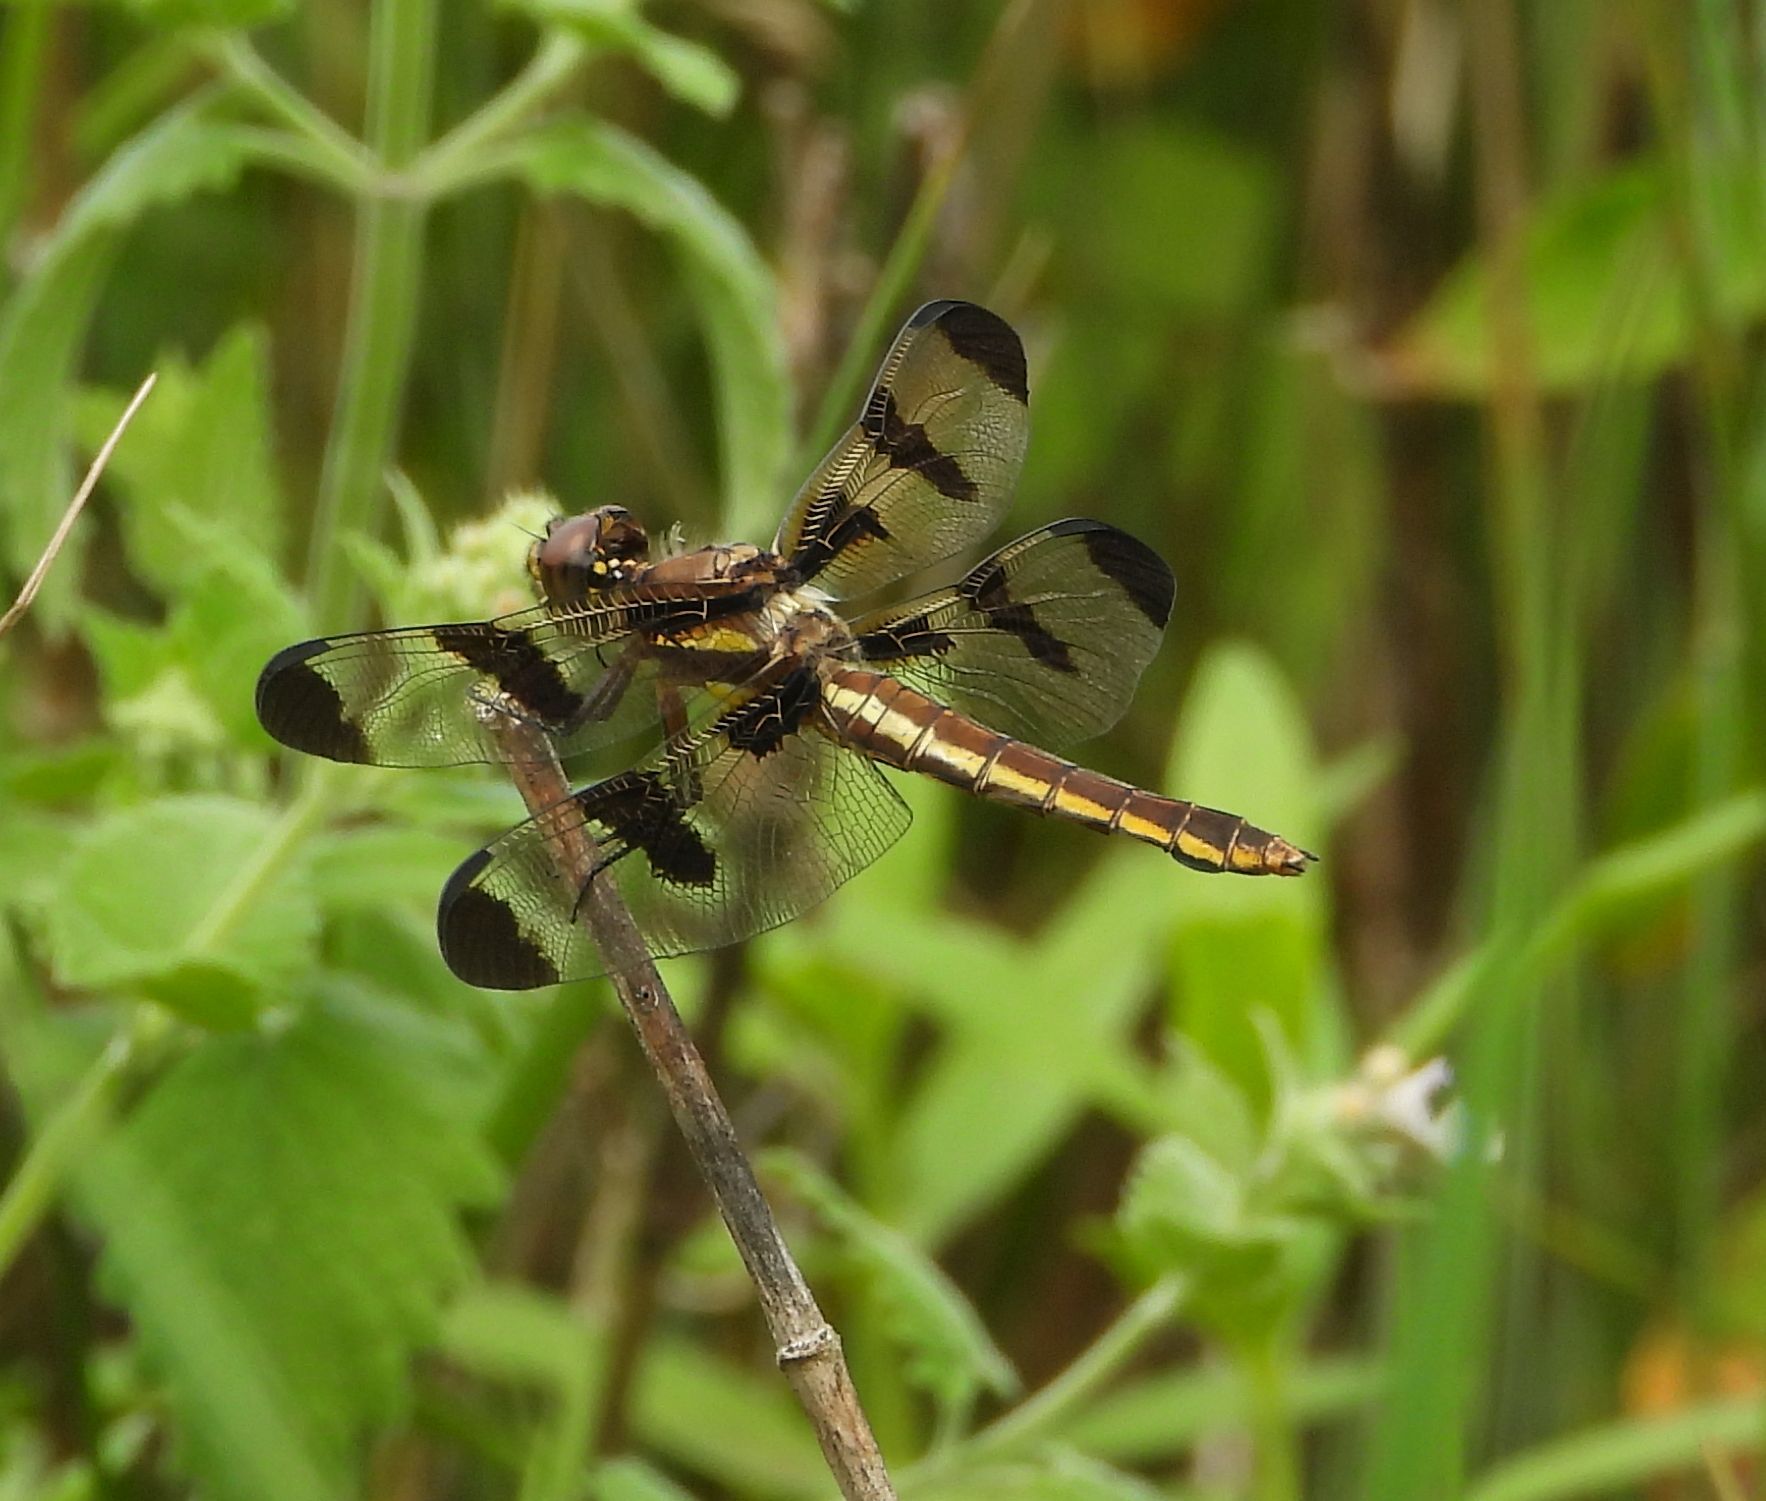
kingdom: Animalia
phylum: Arthropoda
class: Insecta
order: Odonata
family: Libellulidae
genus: Libellula
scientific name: Libellula pulchella
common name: Twelve-spotted skimmer
